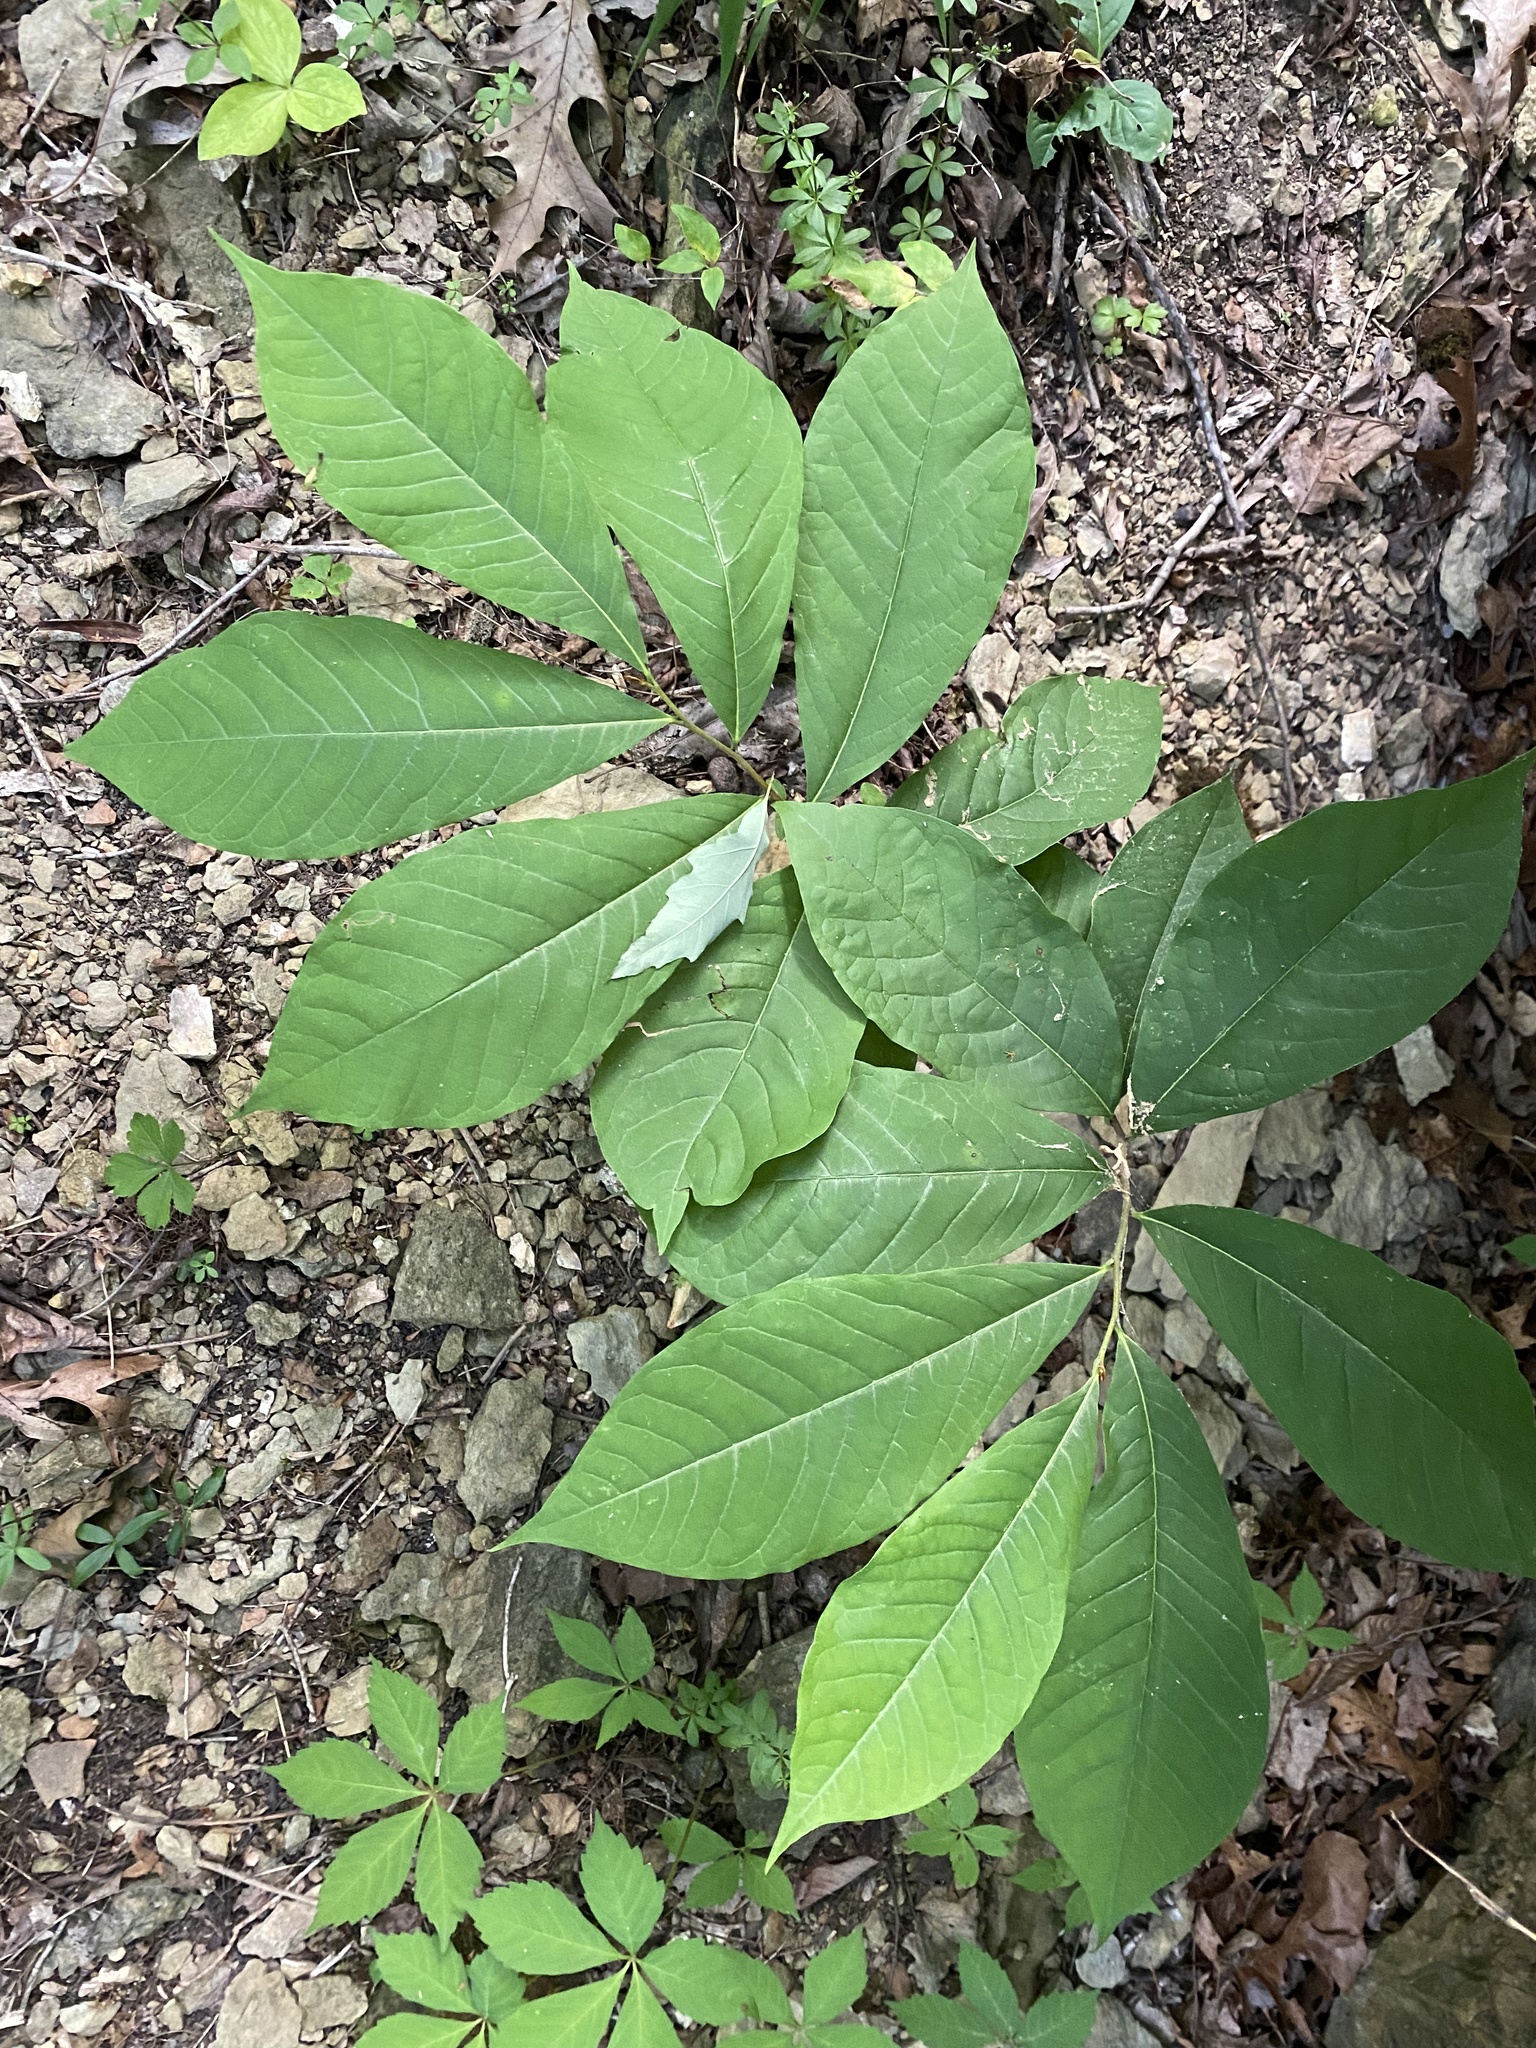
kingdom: Plantae
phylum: Tracheophyta
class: Magnoliopsida
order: Magnoliales
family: Annonaceae
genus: Asimina
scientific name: Asimina triloba
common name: Dog-banana
